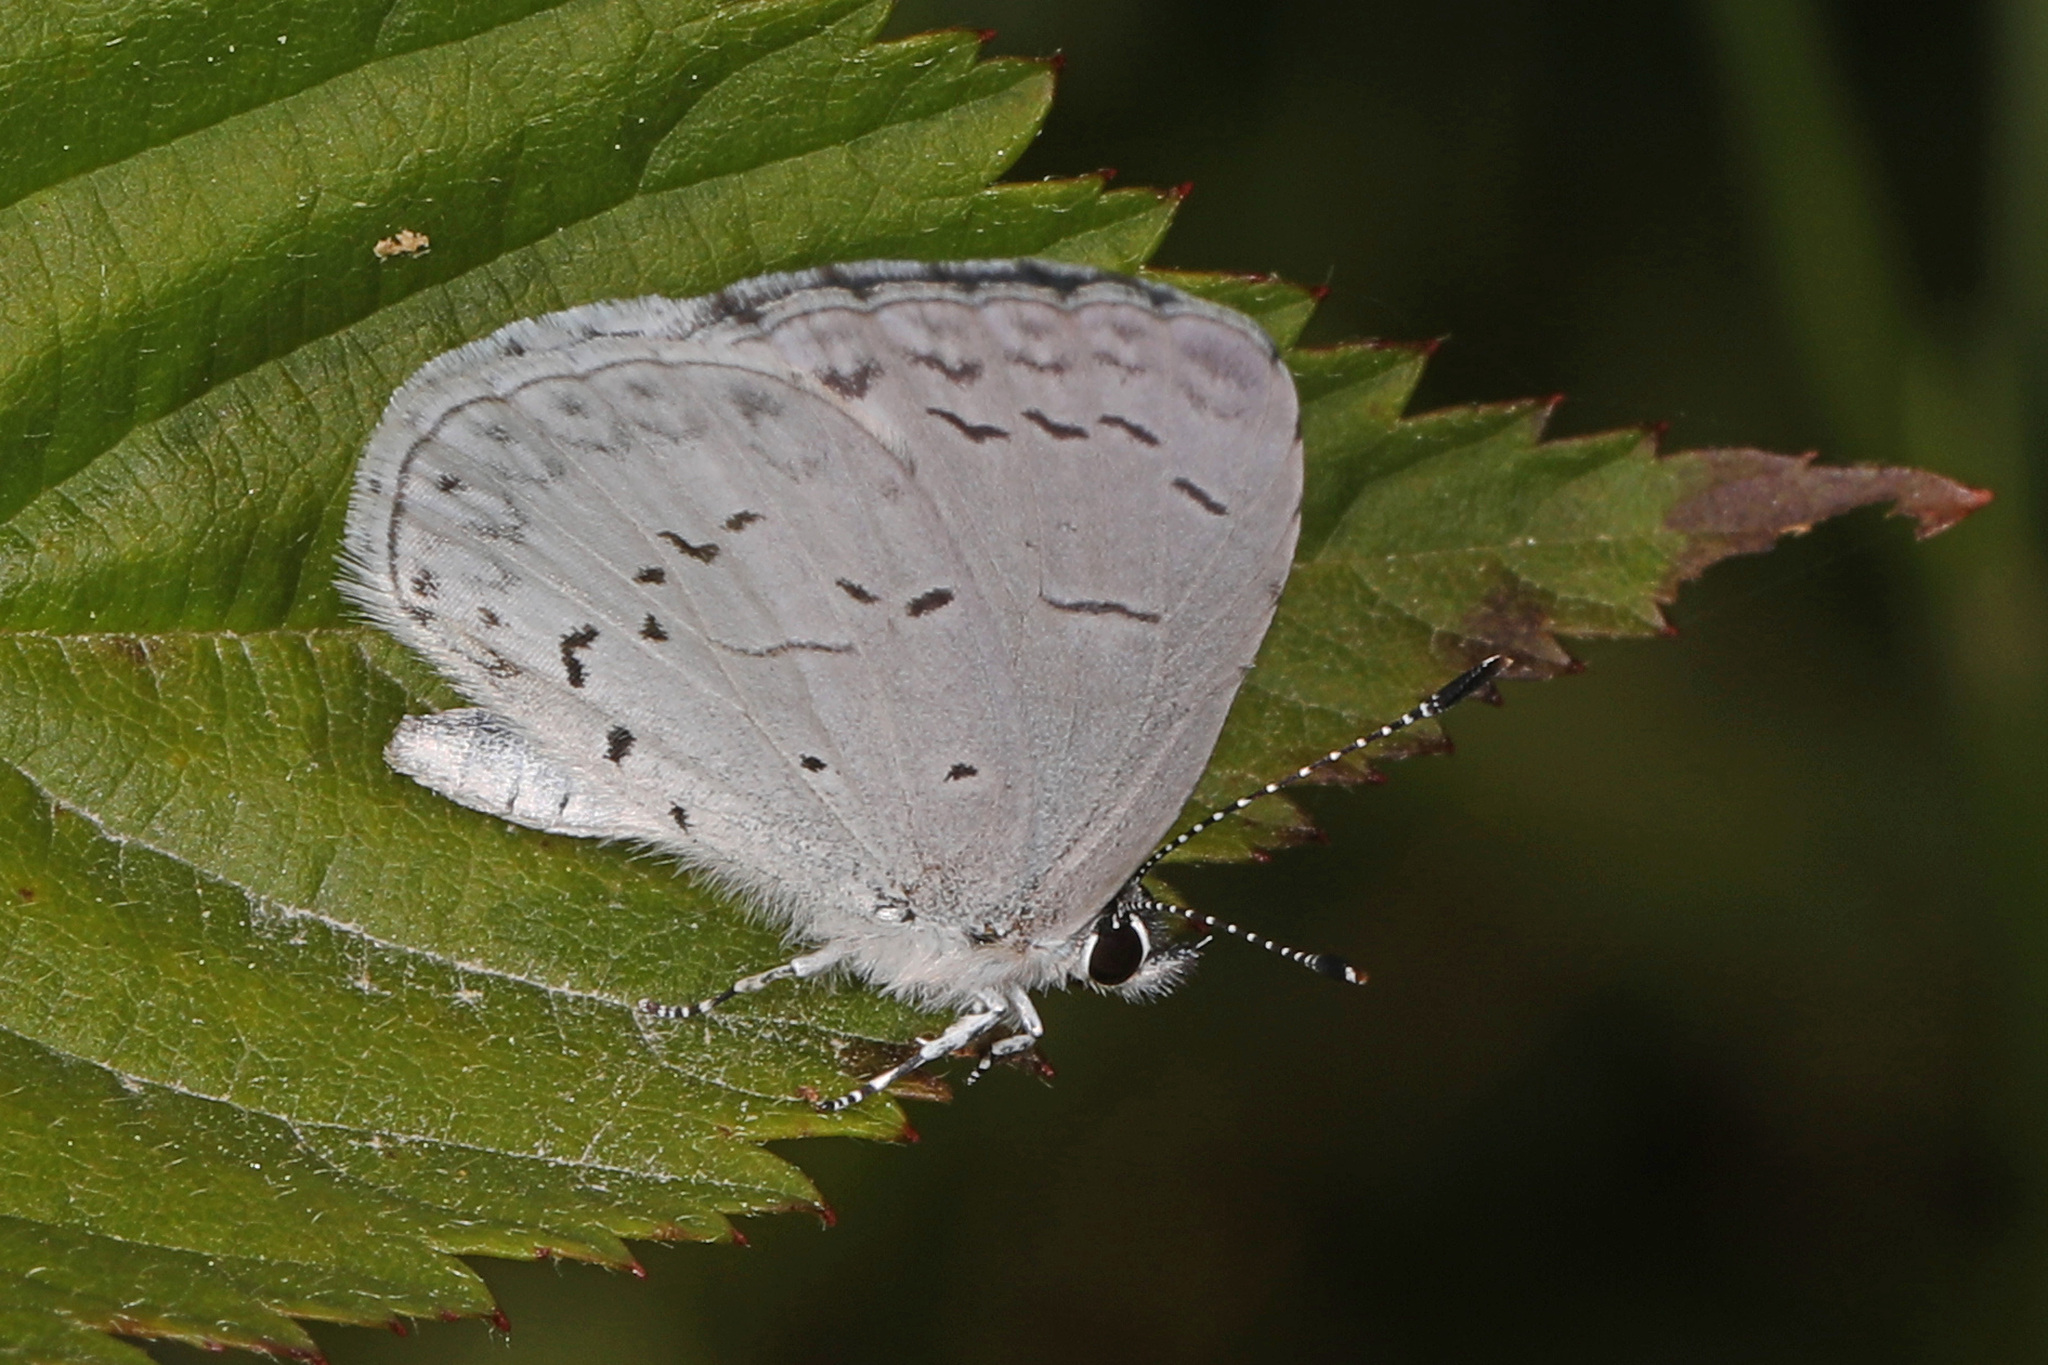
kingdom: Animalia
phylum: Arthropoda
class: Insecta
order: Lepidoptera
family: Lycaenidae
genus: Cyaniris
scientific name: Cyaniris neglecta
